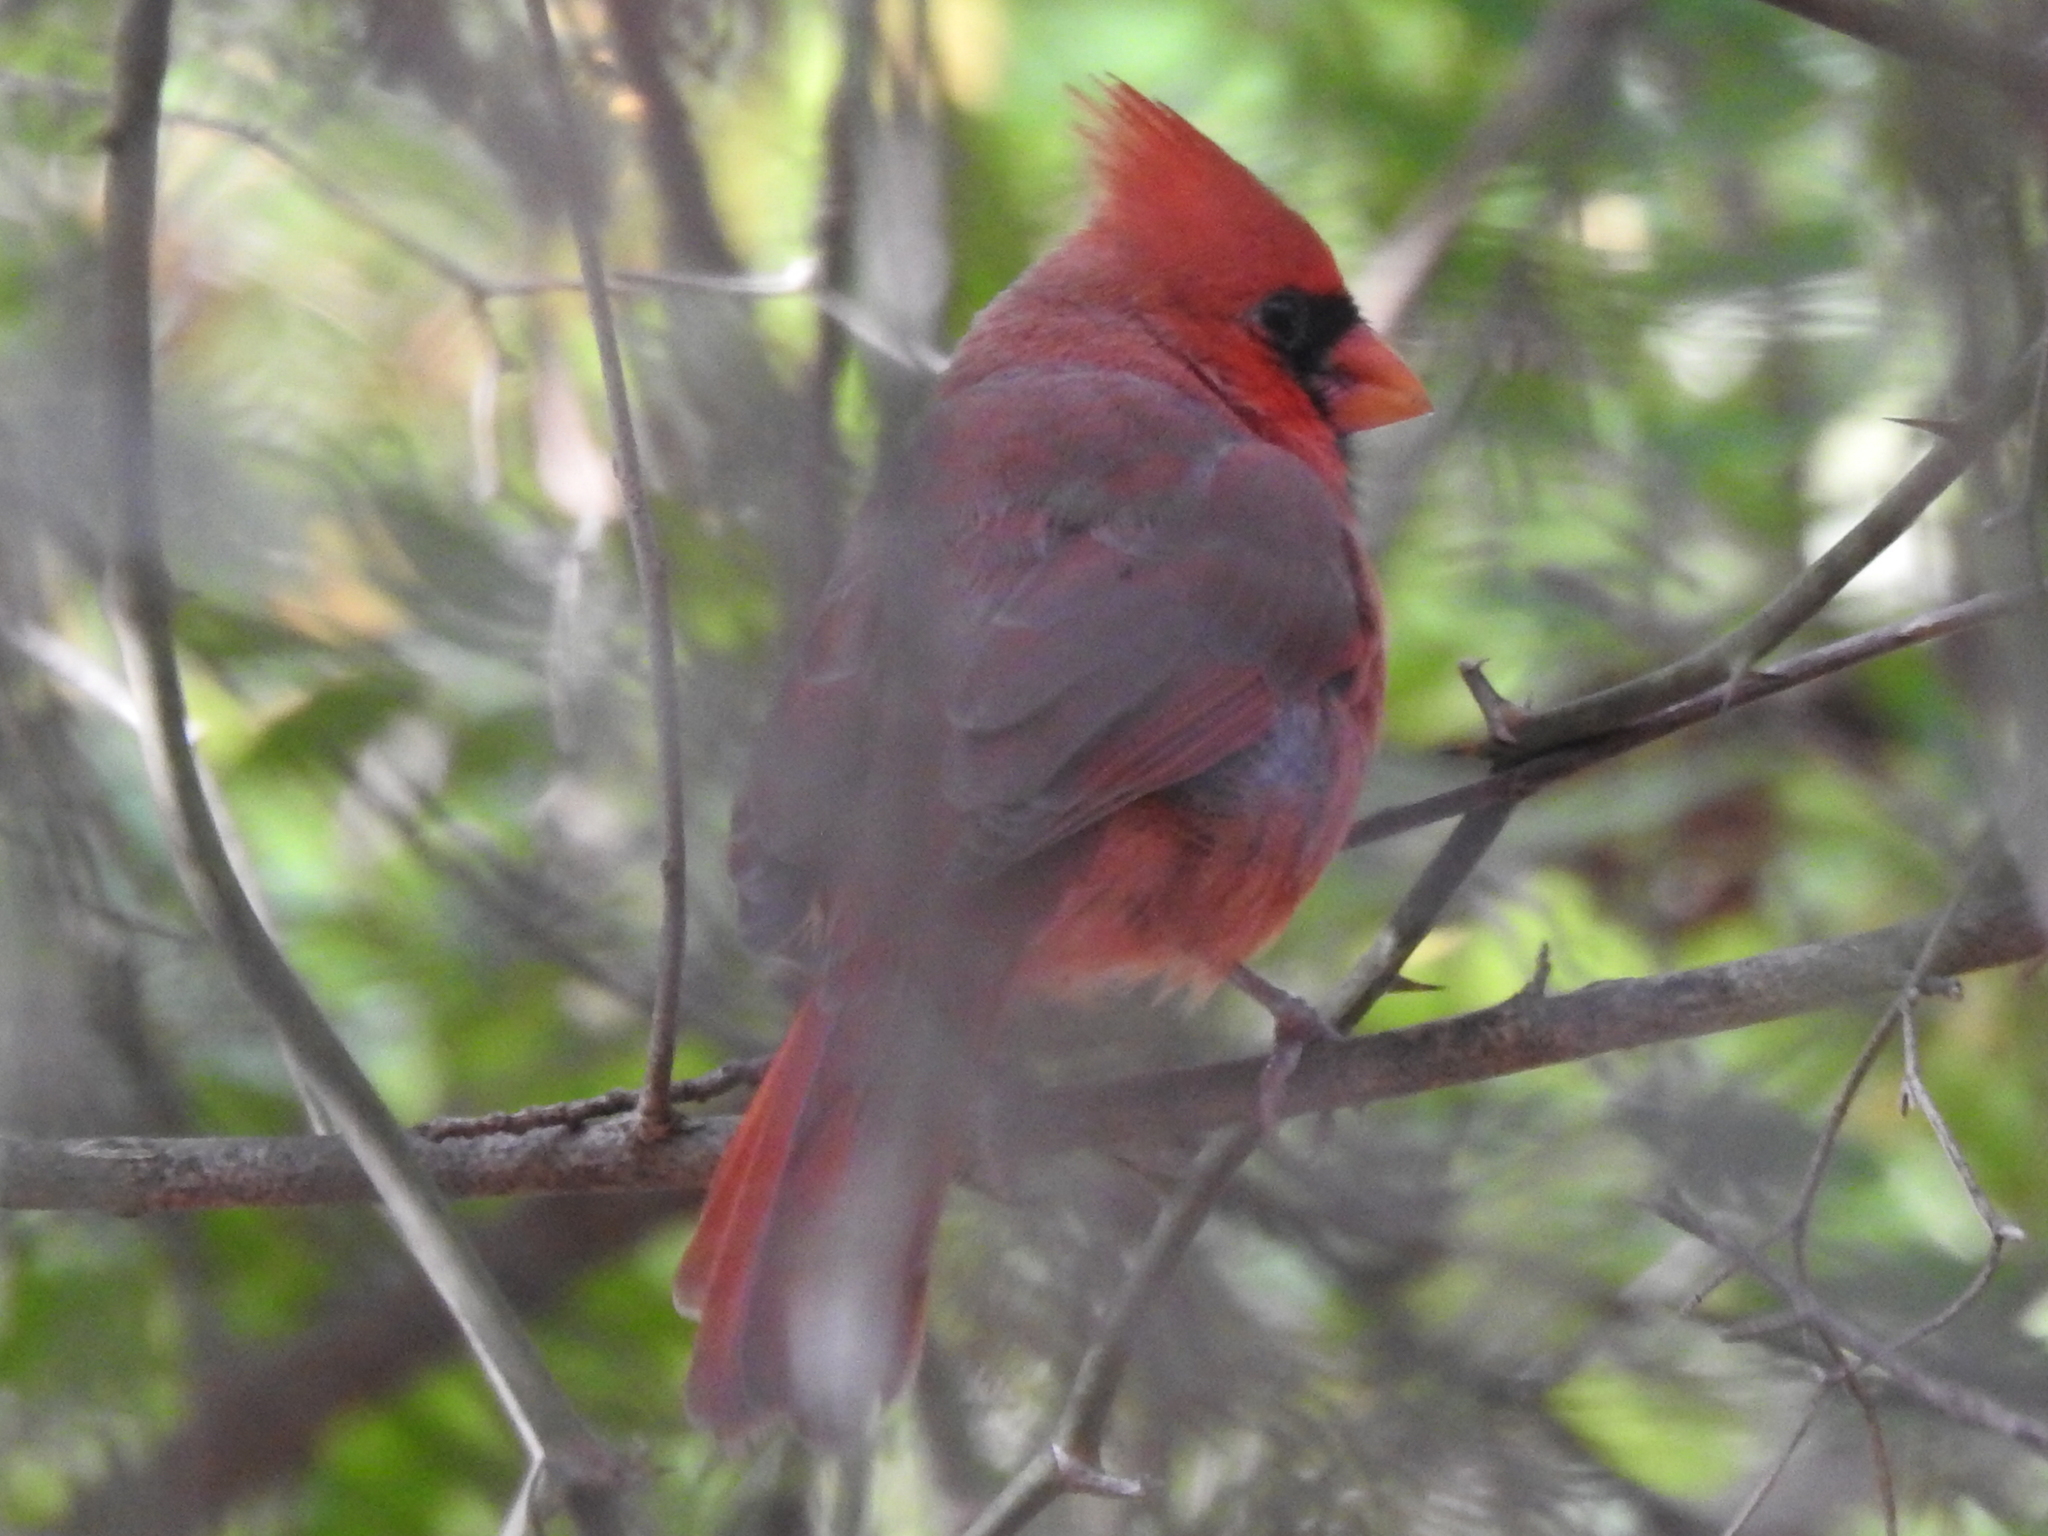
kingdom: Animalia
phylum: Chordata
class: Aves
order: Passeriformes
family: Cardinalidae
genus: Cardinalis
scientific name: Cardinalis cardinalis
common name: Northern cardinal
